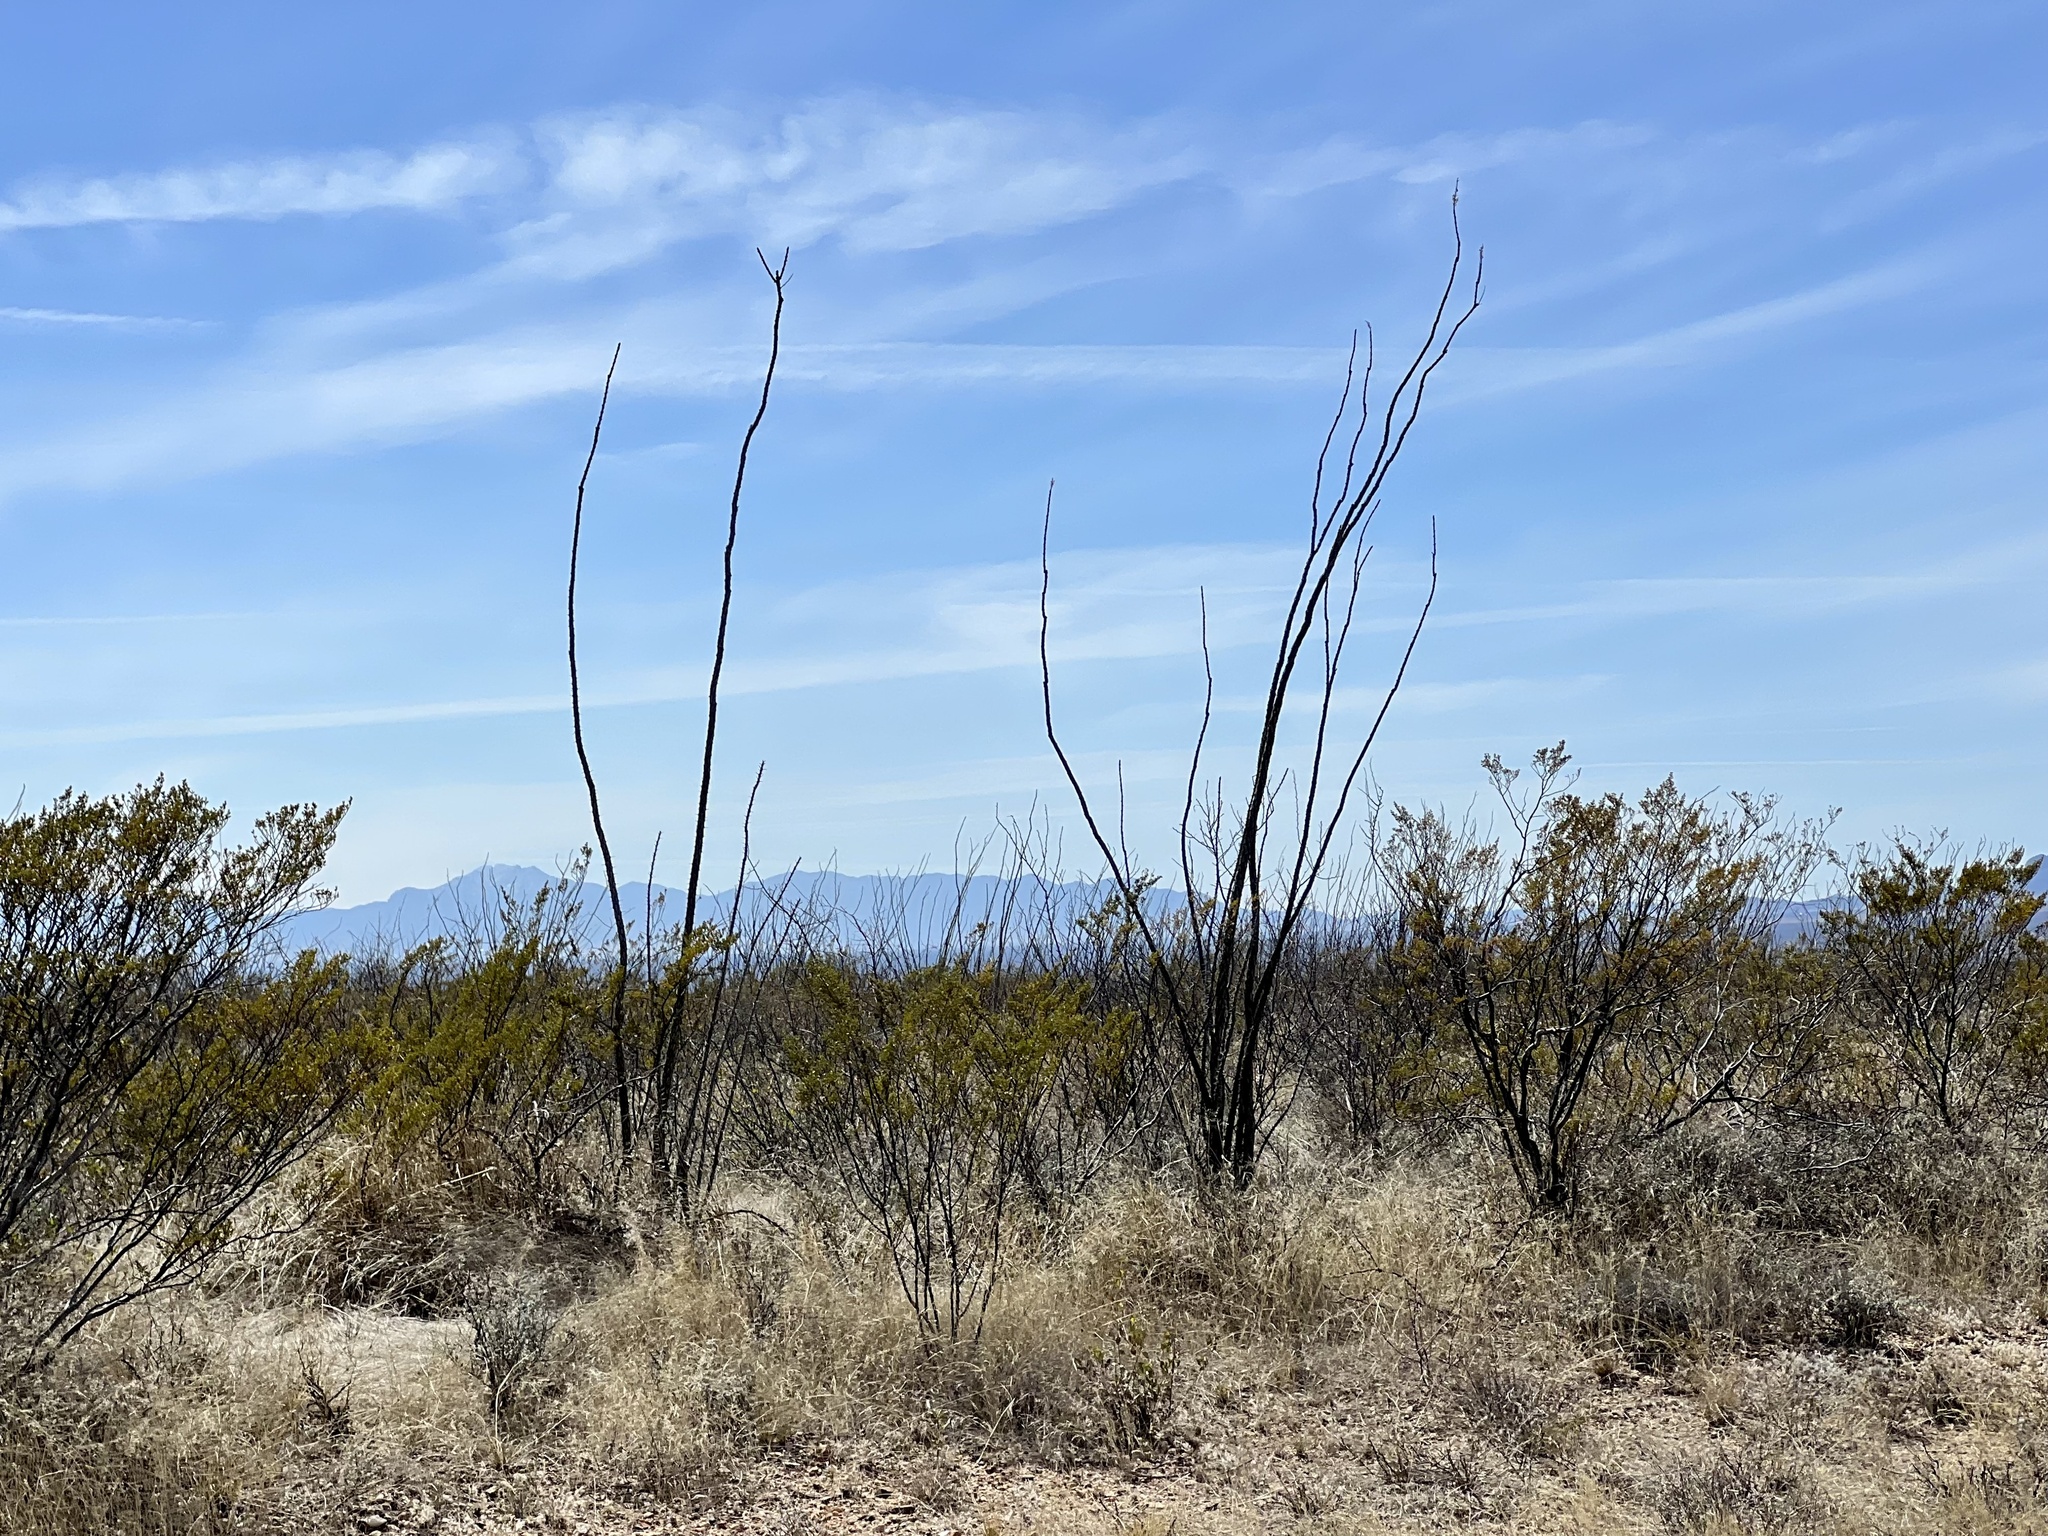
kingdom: Plantae
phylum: Tracheophyta
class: Magnoliopsida
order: Ericales
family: Fouquieriaceae
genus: Fouquieria
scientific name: Fouquieria splendens
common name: Vine-cactus
